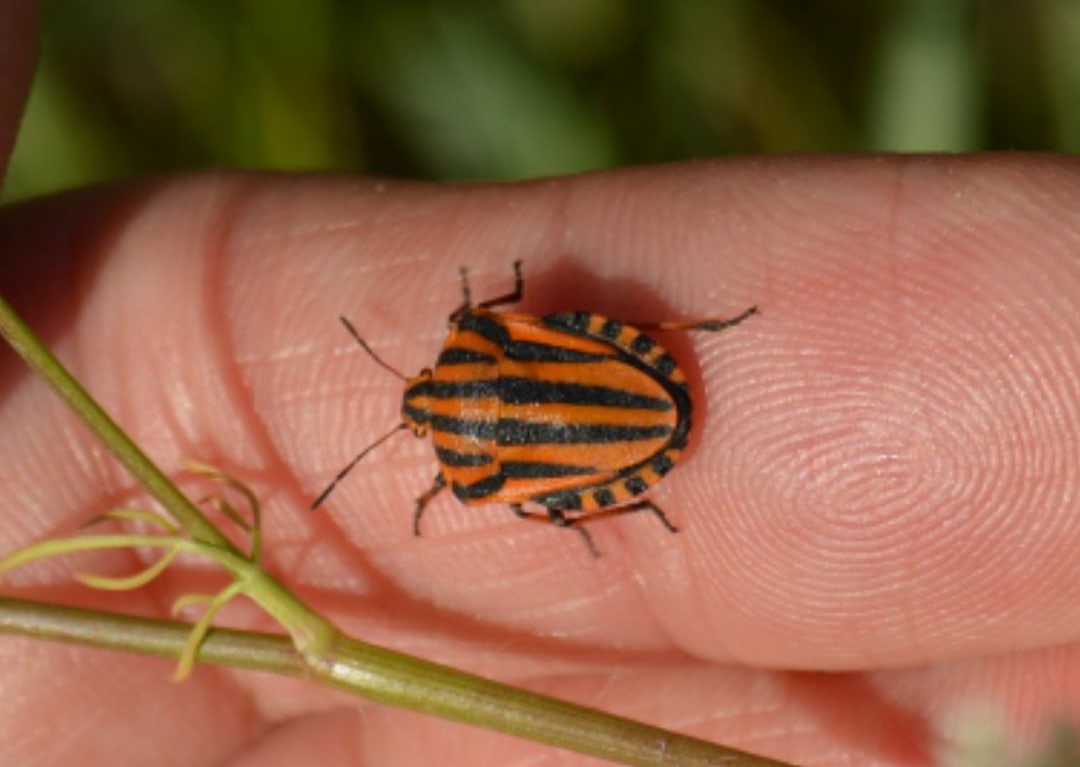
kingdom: Animalia
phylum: Arthropoda
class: Insecta
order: Hemiptera
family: Pentatomidae
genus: Graphosoma
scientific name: Graphosoma italicum
